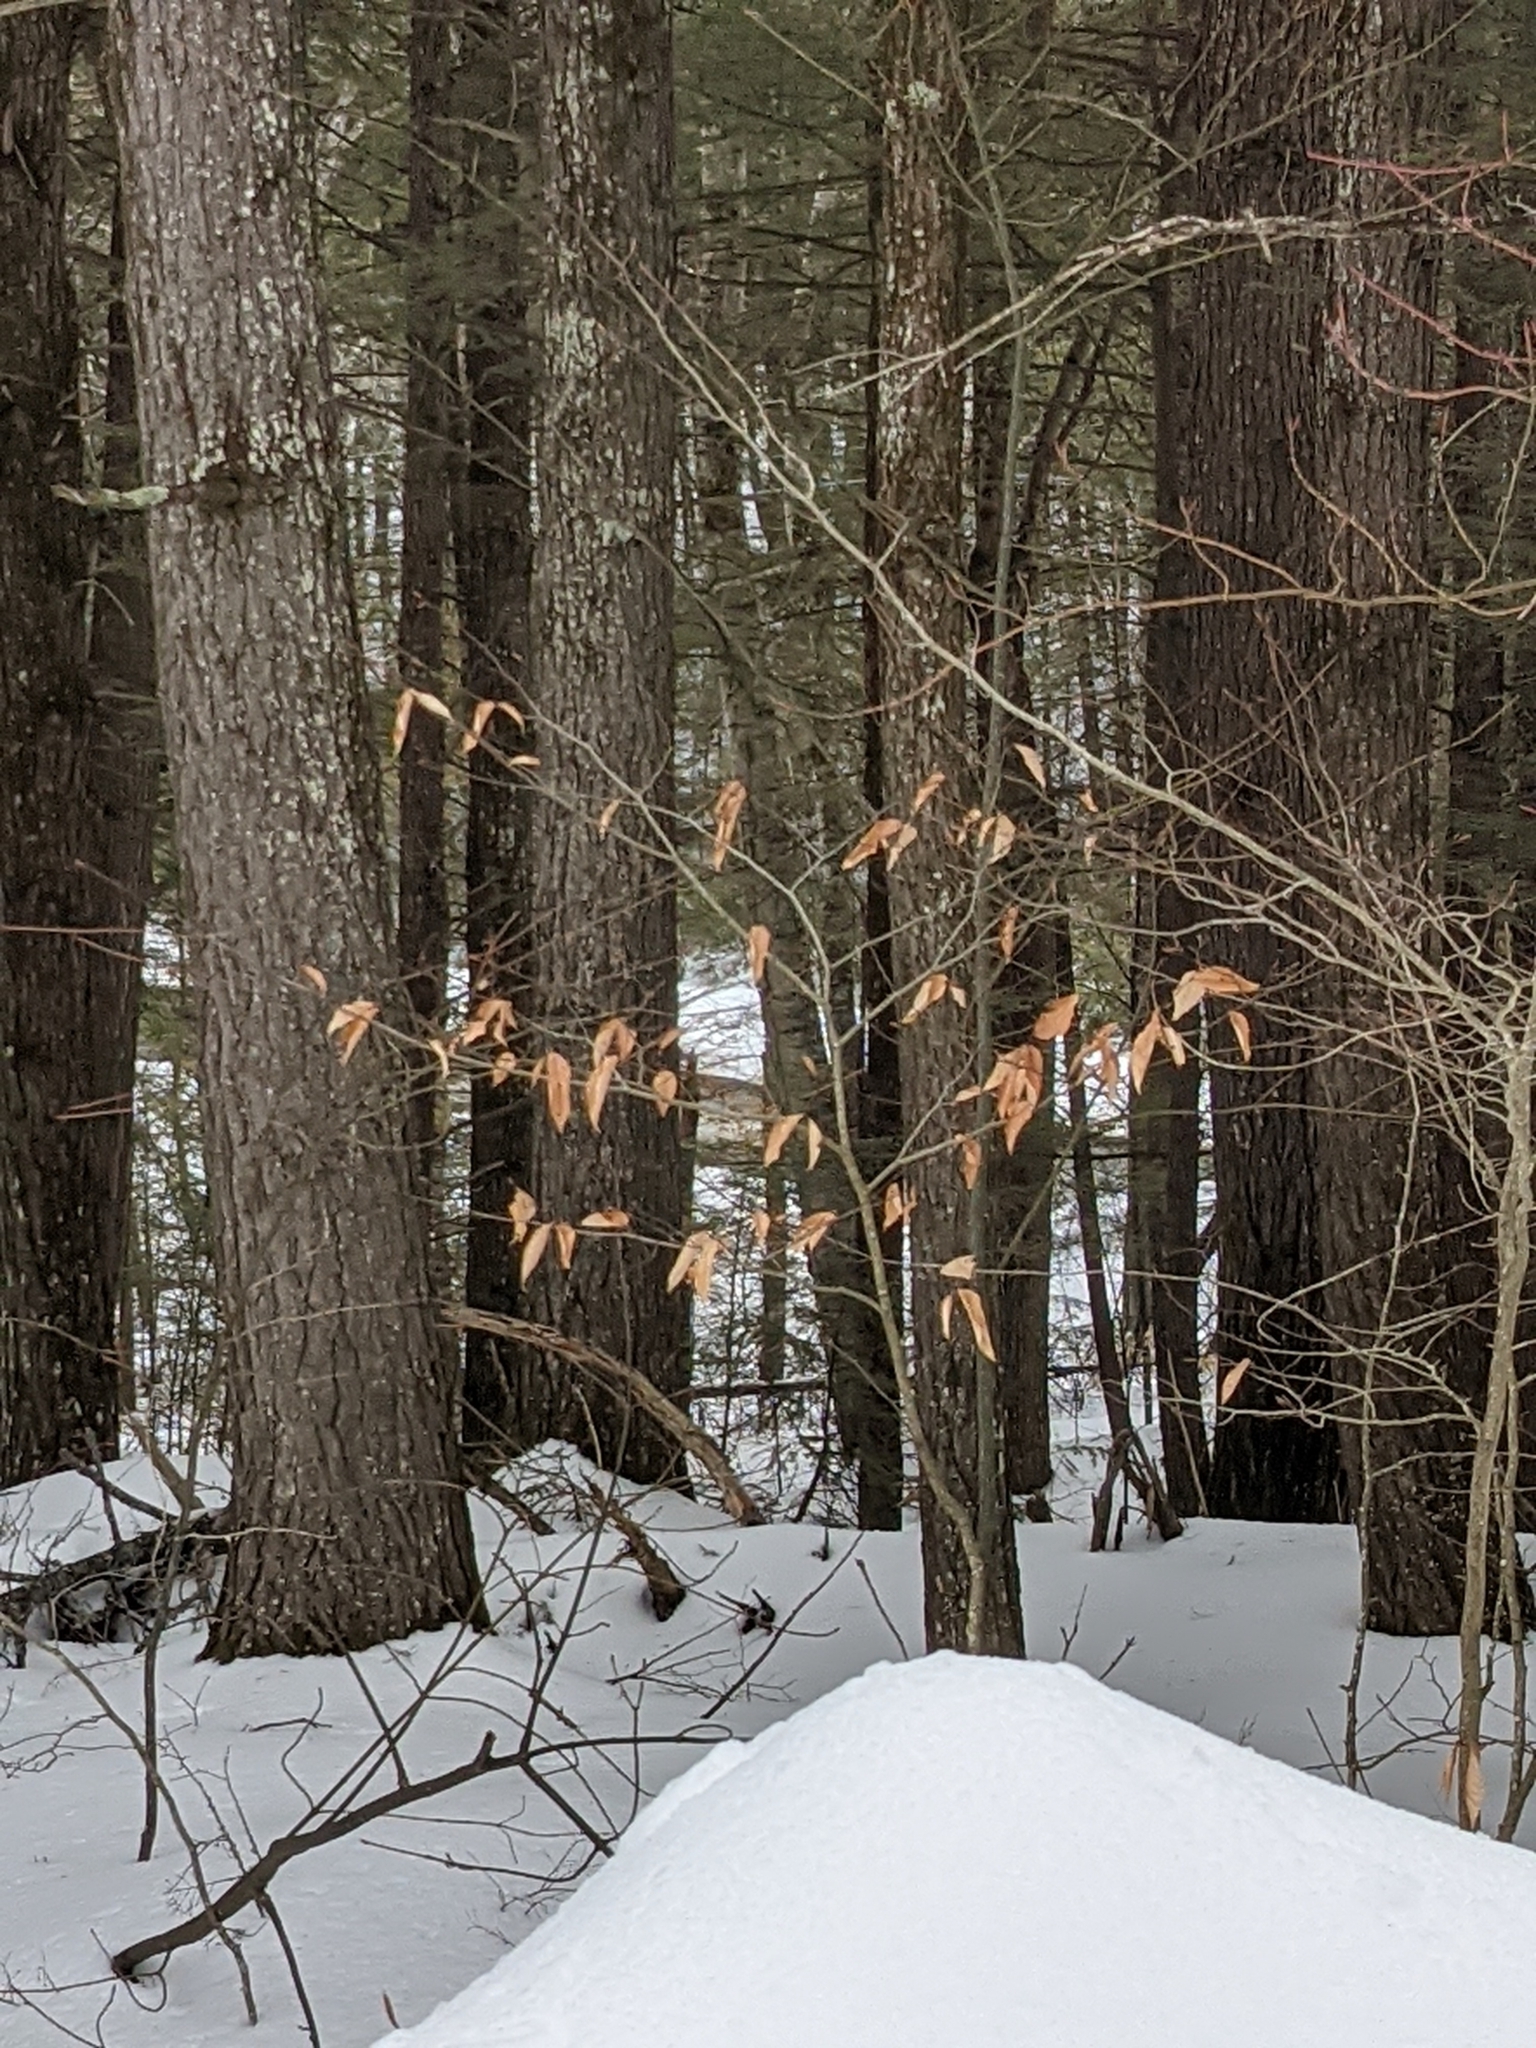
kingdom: Plantae
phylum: Tracheophyta
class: Magnoliopsida
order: Fagales
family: Fagaceae
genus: Fagus
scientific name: Fagus grandifolia
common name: American beech
